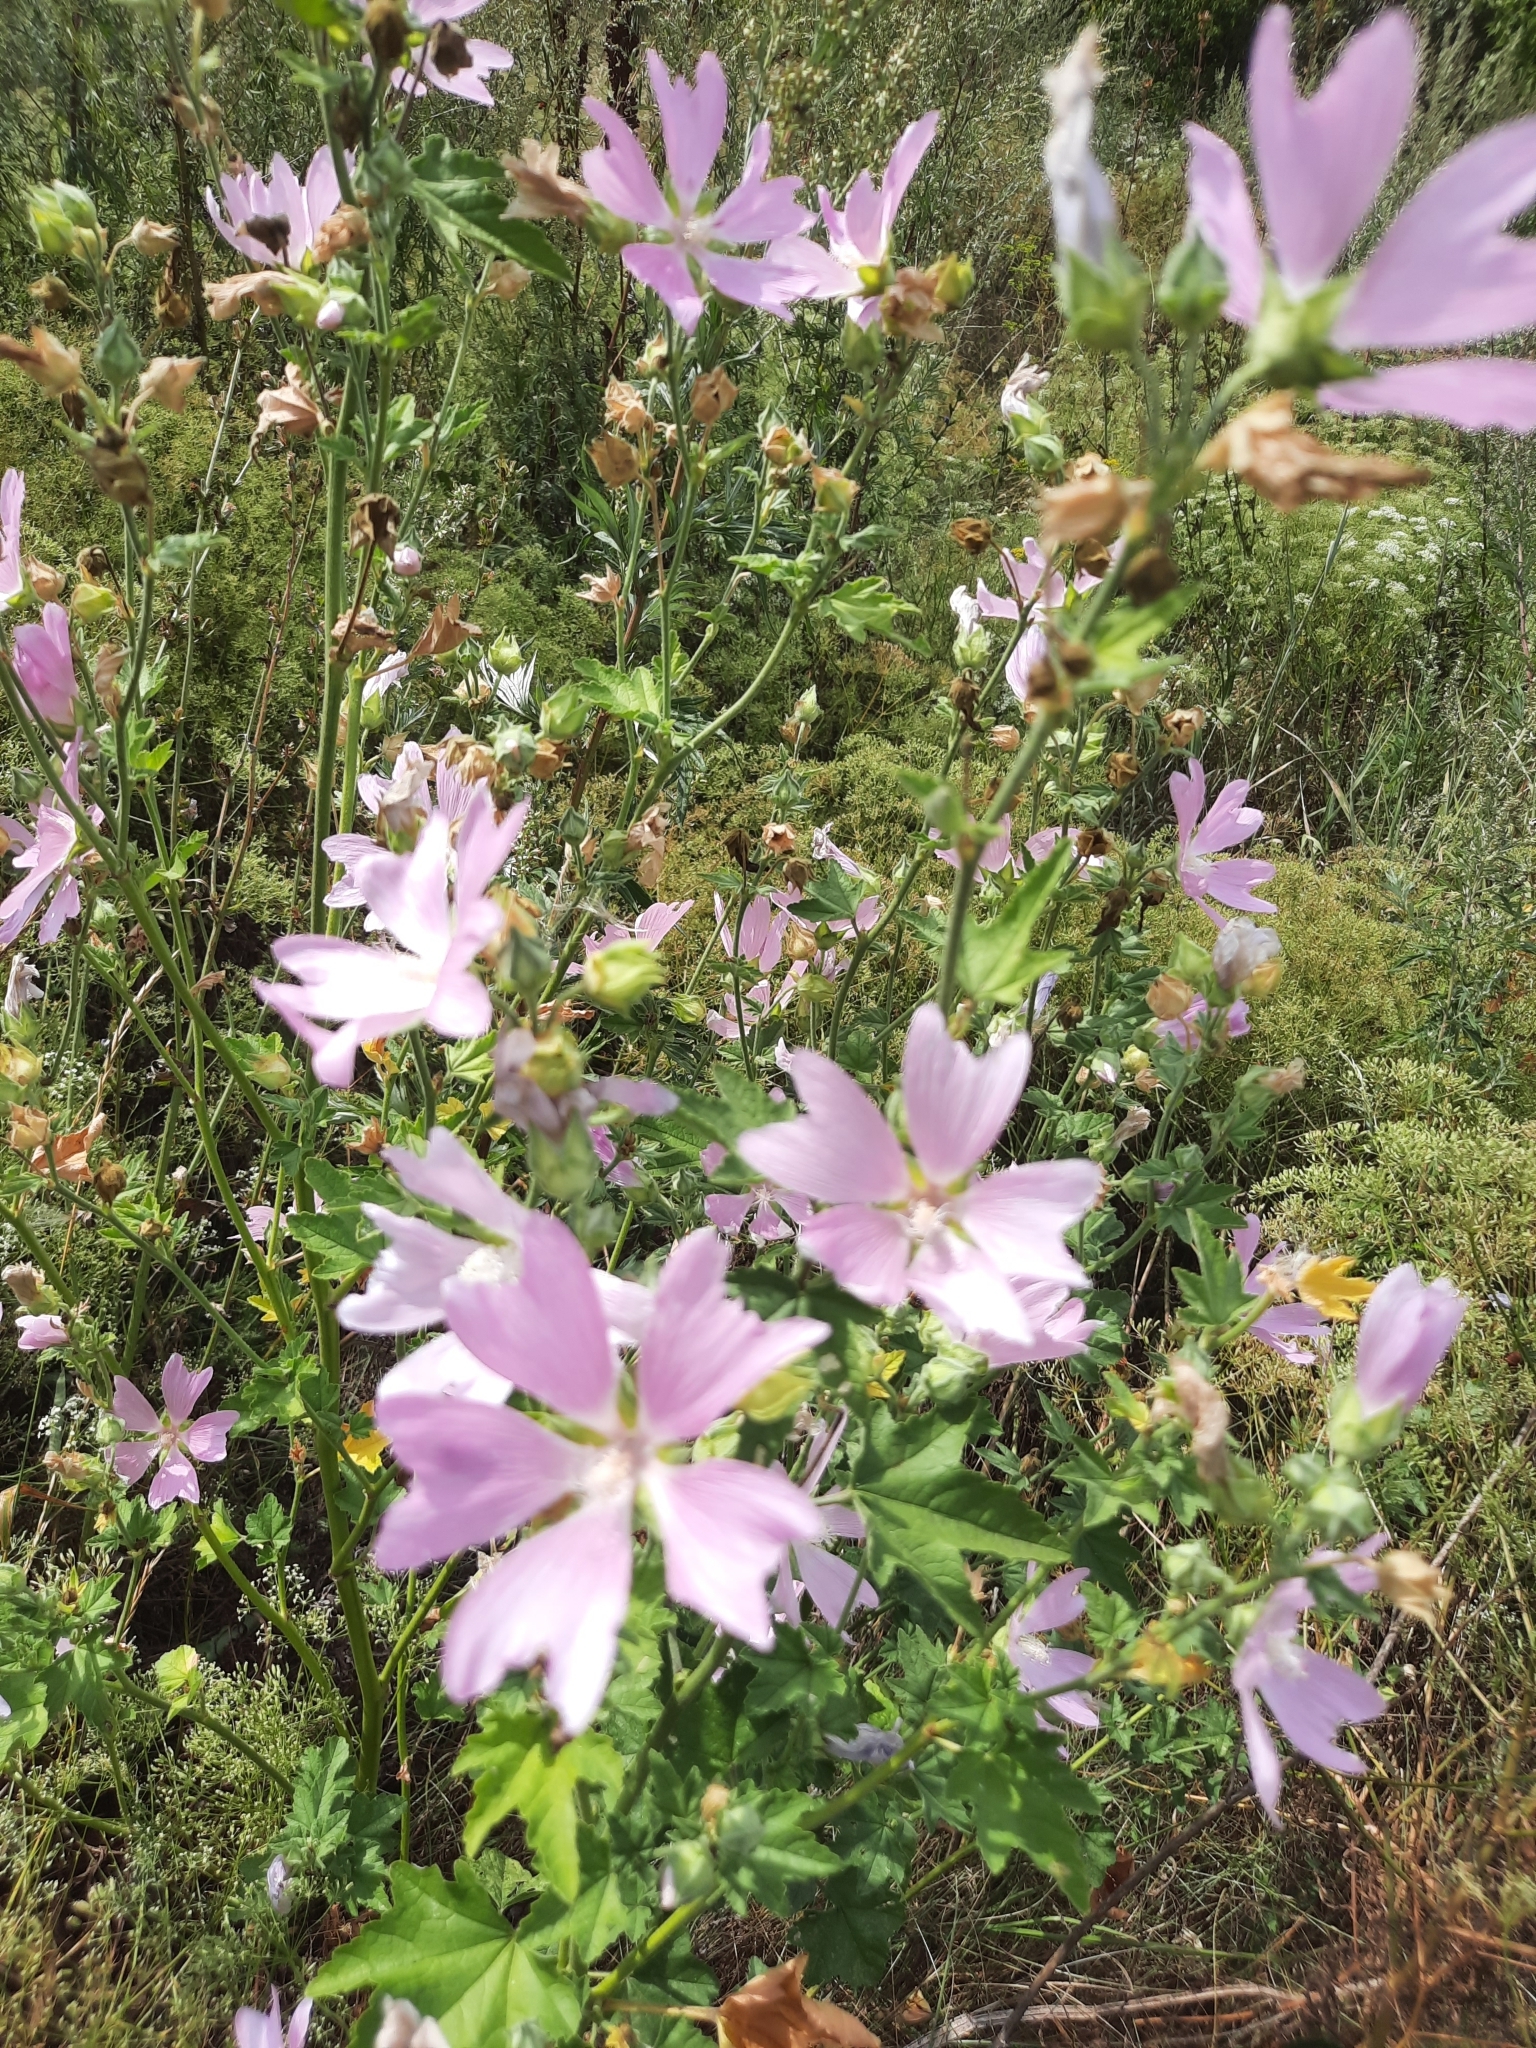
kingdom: Plantae
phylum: Tracheophyta
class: Magnoliopsida
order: Malvales
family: Malvaceae
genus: Malva
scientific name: Malva thuringiaca
